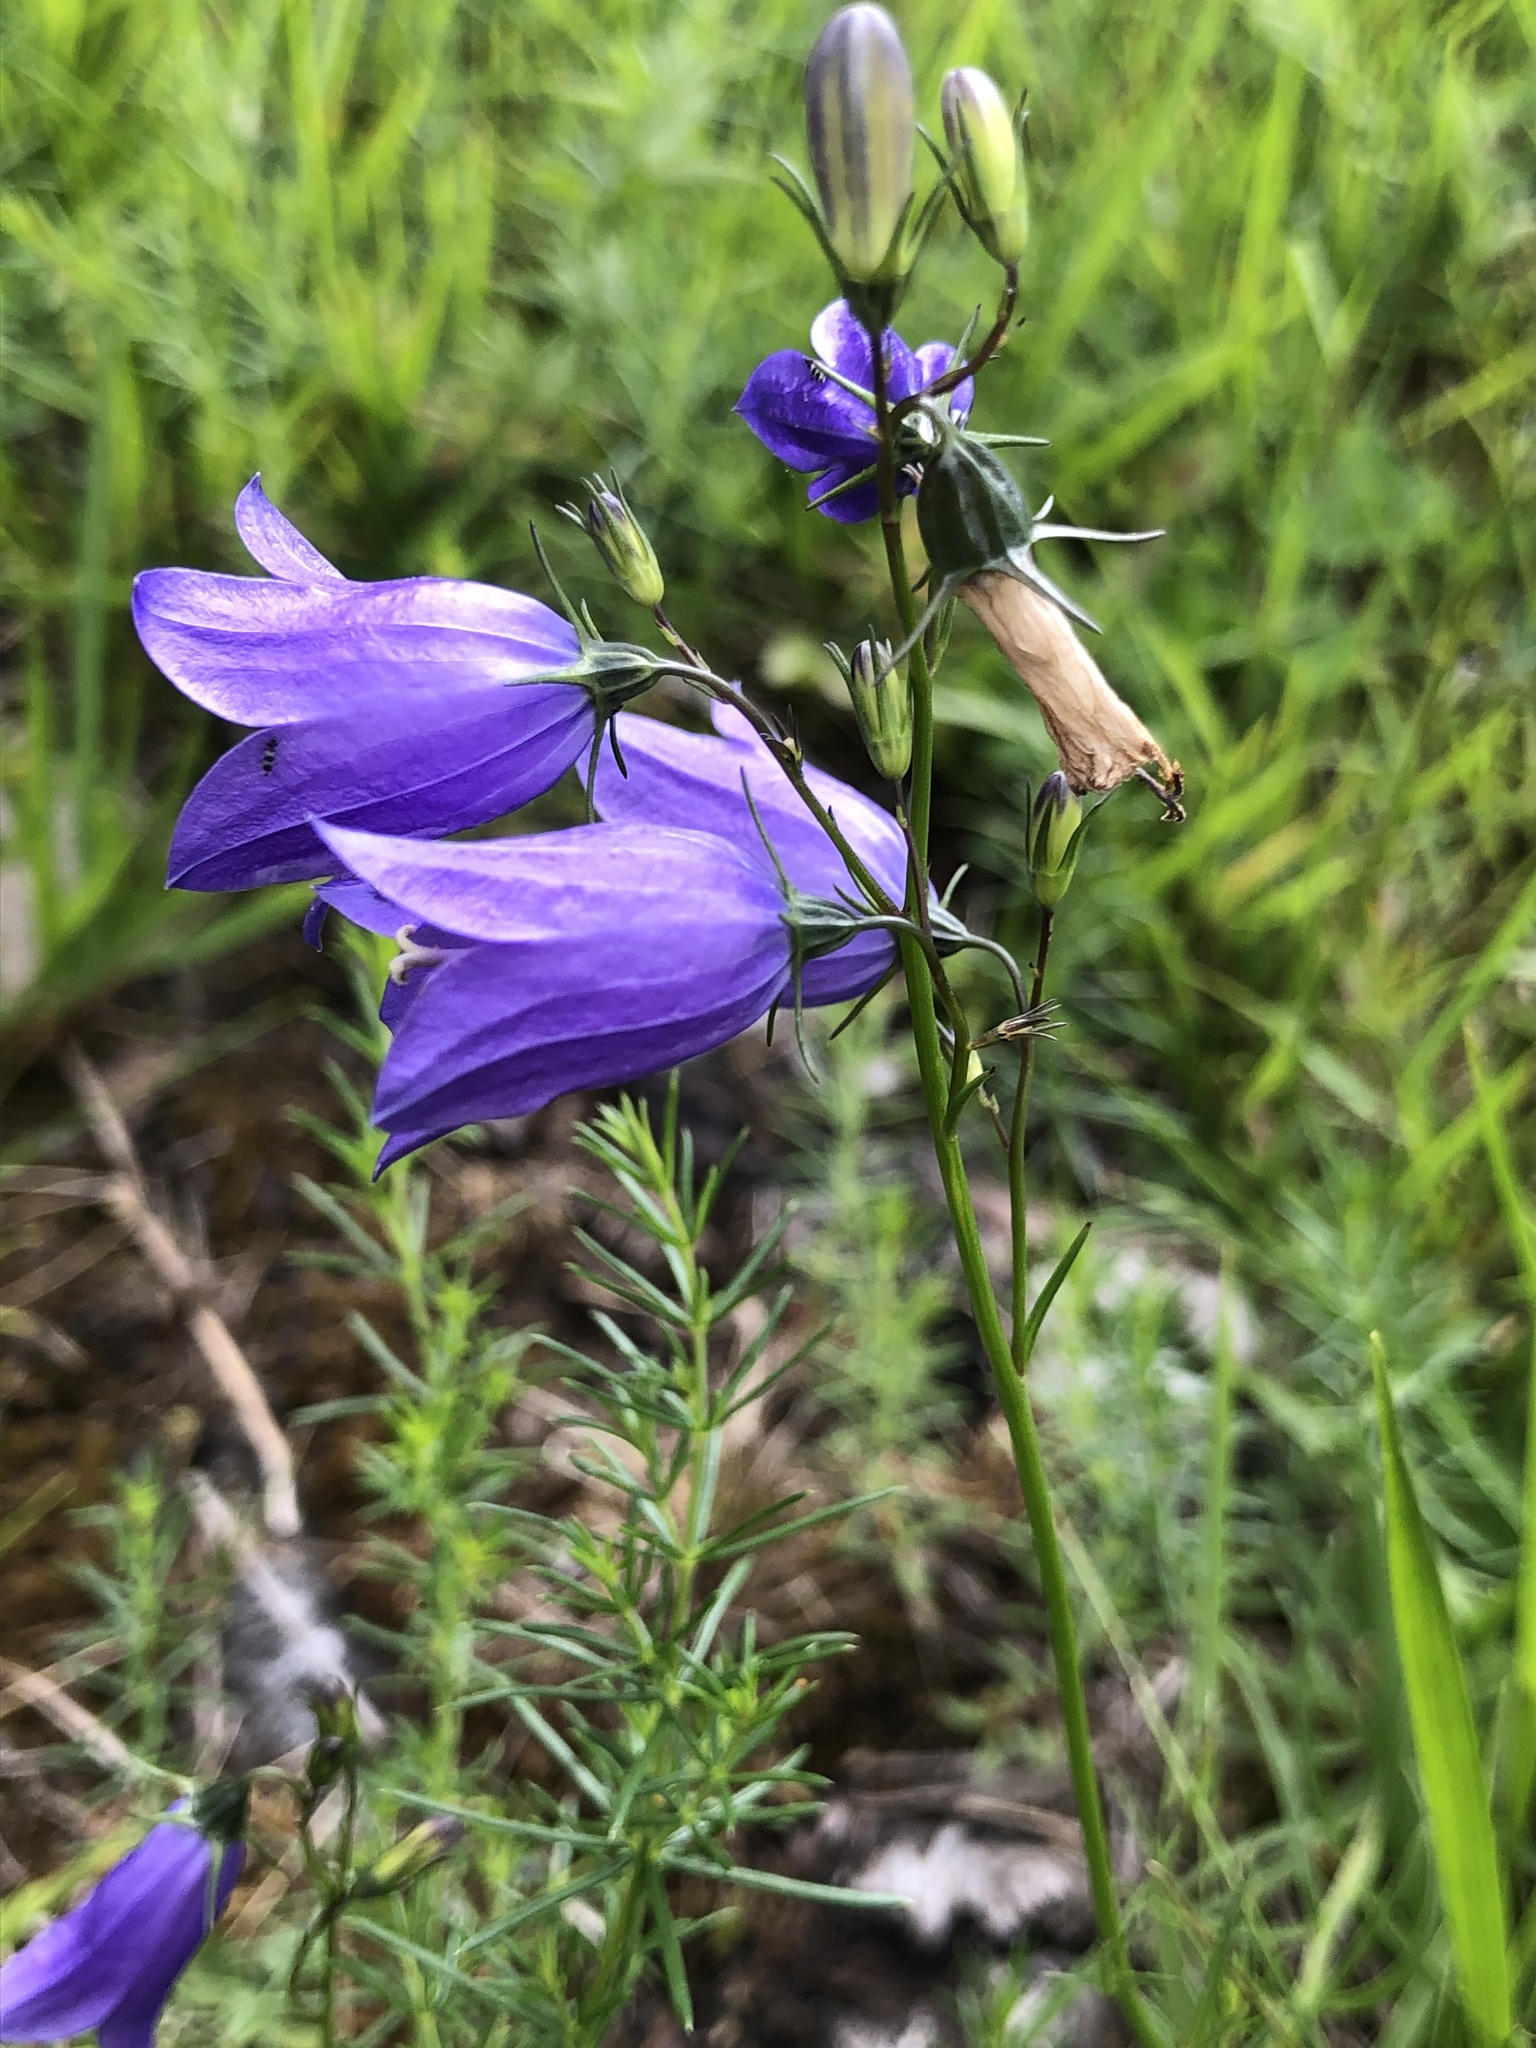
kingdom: Plantae
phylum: Tracheophyta
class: Magnoliopsida
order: Asterales
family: Campanulaceae
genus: Campanula
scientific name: Campanula rotundifolia
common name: Harebell
